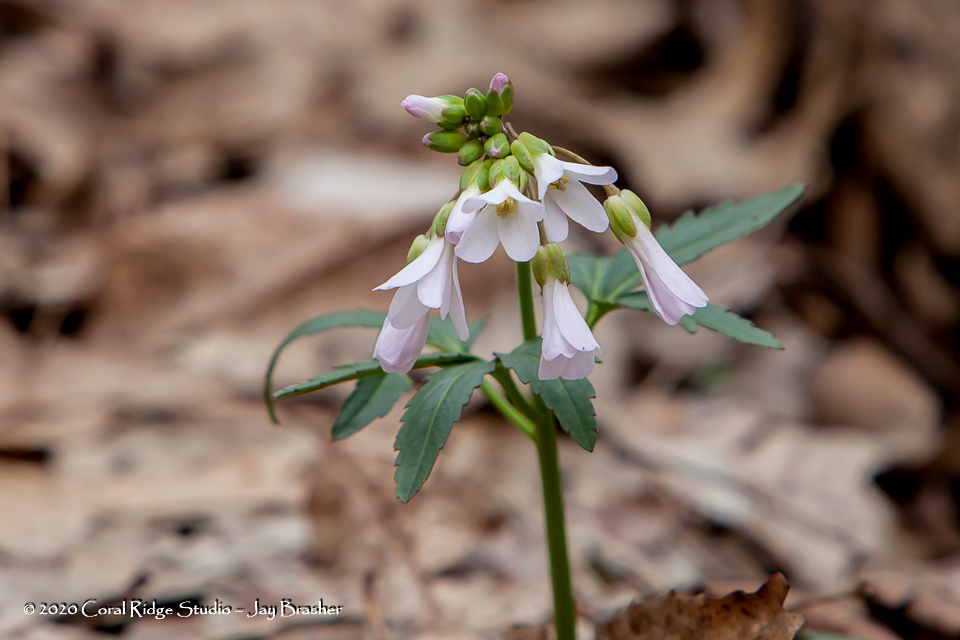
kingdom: Plantae
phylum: Tracheophyta
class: Magnoliopsida
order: Brassicales
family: Brassicaceae
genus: Cardamine
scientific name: Cardamine concatenata
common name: Cut-leaf toothcup
